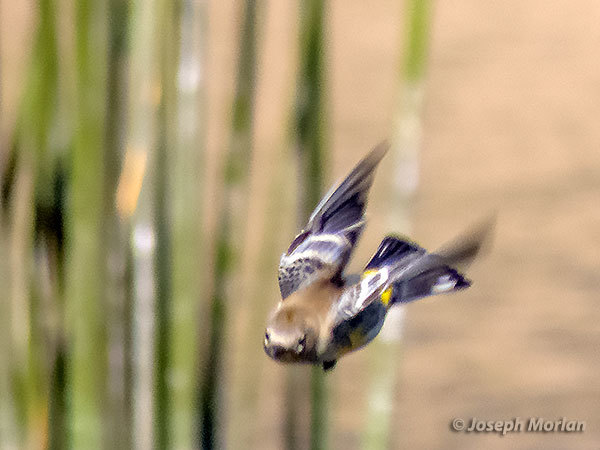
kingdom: Animalia
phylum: Chordata
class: Aves
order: Passeriformes
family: Parulidae
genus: Setophaga
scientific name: Setophaga coronata
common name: Myrtle warbler
